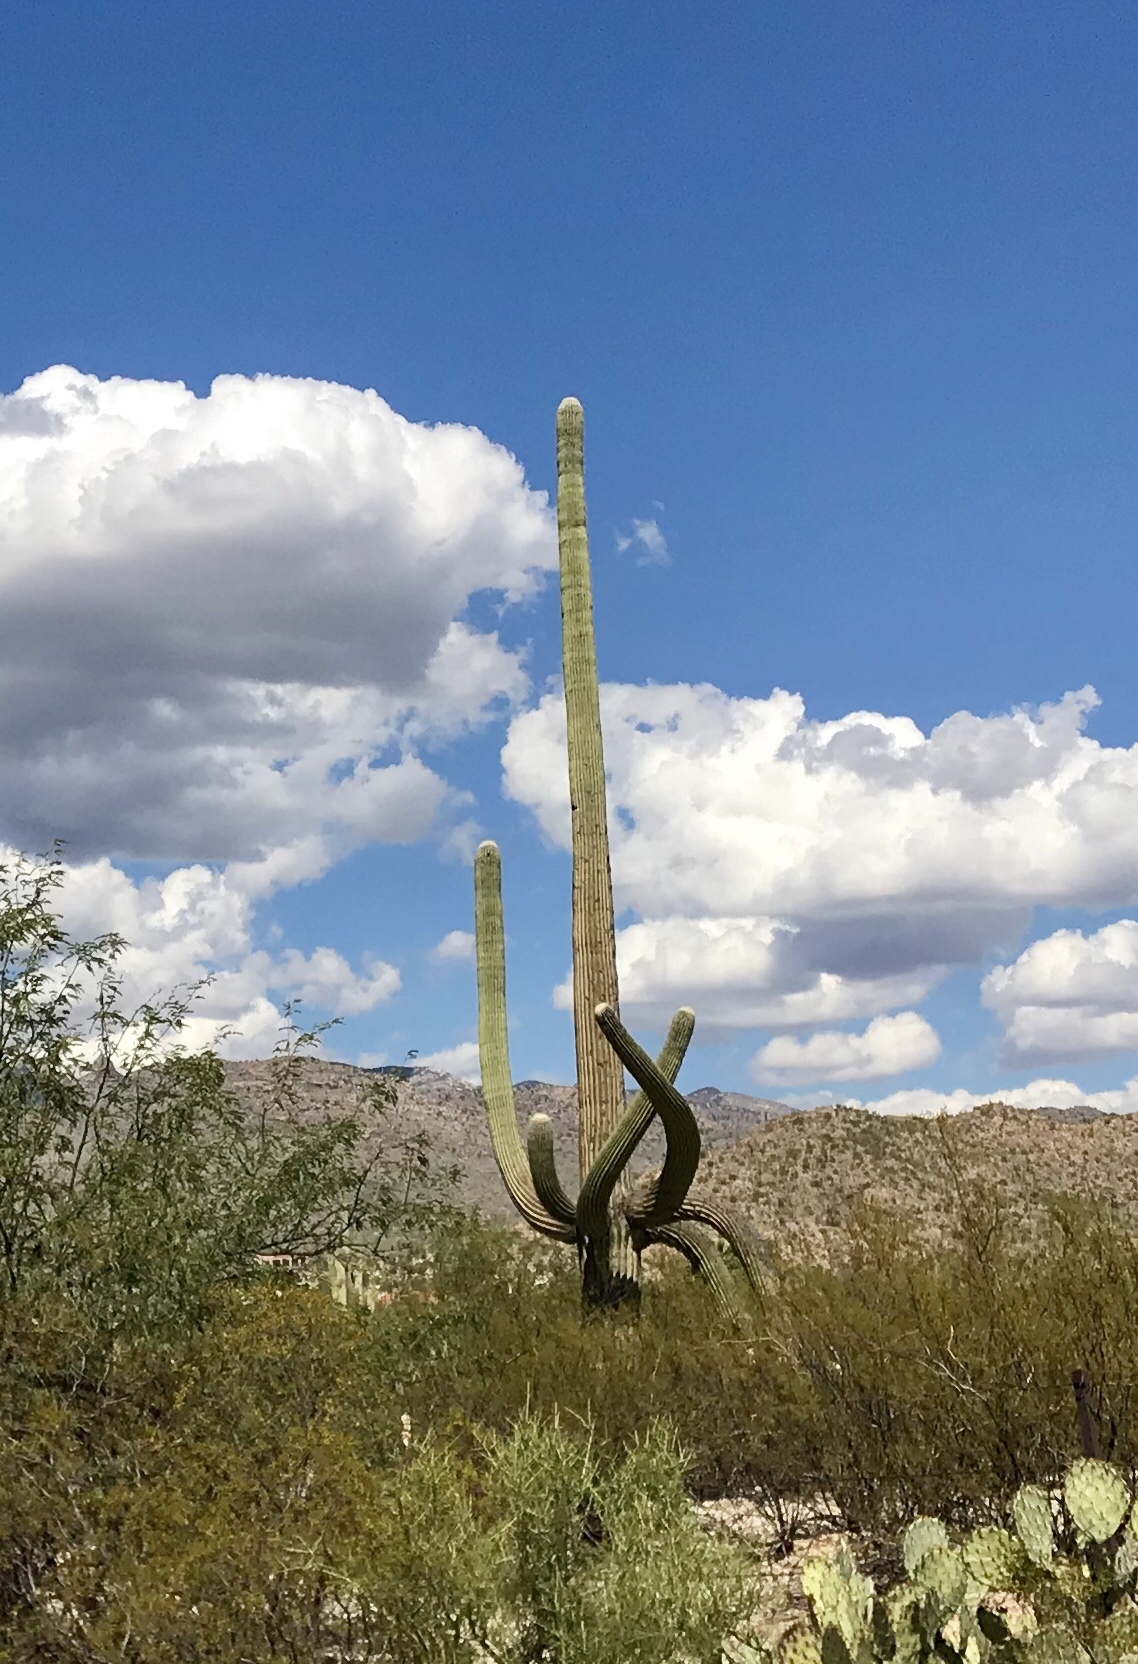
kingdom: Plantae
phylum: Tracheophyta
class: Magnoliopsida
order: Caryophyllales
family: Cactaceae
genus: Carnegiea
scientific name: Carnegiea gigantea
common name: Saguaro
